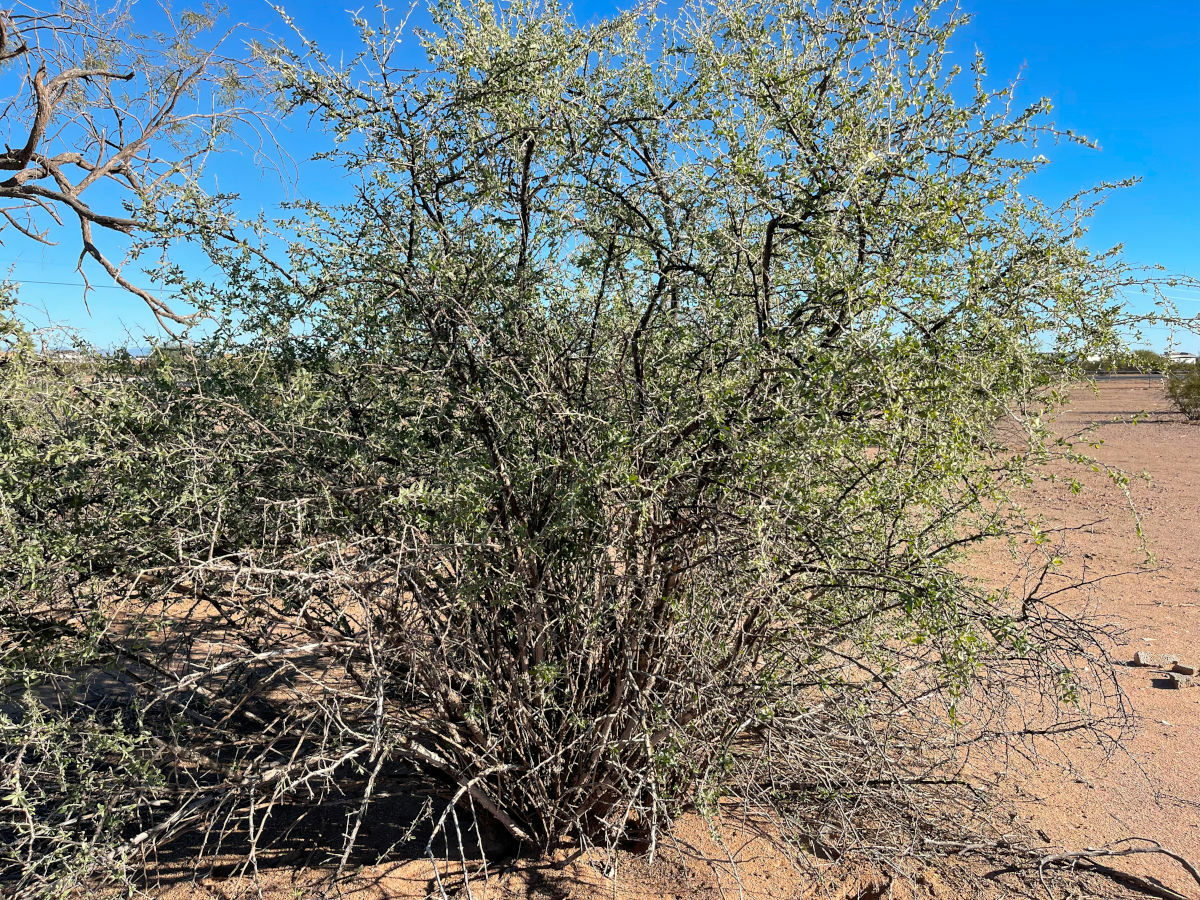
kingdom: Plantae
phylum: Tracheophyta
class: Magnoliopsida
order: Solanales
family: Solanaceae
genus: Lycium
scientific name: Lycium exsertum
